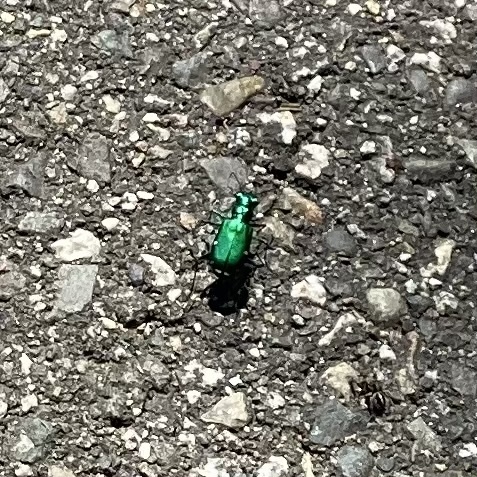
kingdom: Animalia
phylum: Arthropoda
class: Insecta
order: Coleoptera
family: Carabidae
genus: Cicindela
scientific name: Cicindela sexguttata
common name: Six-spotted tiger beetle
